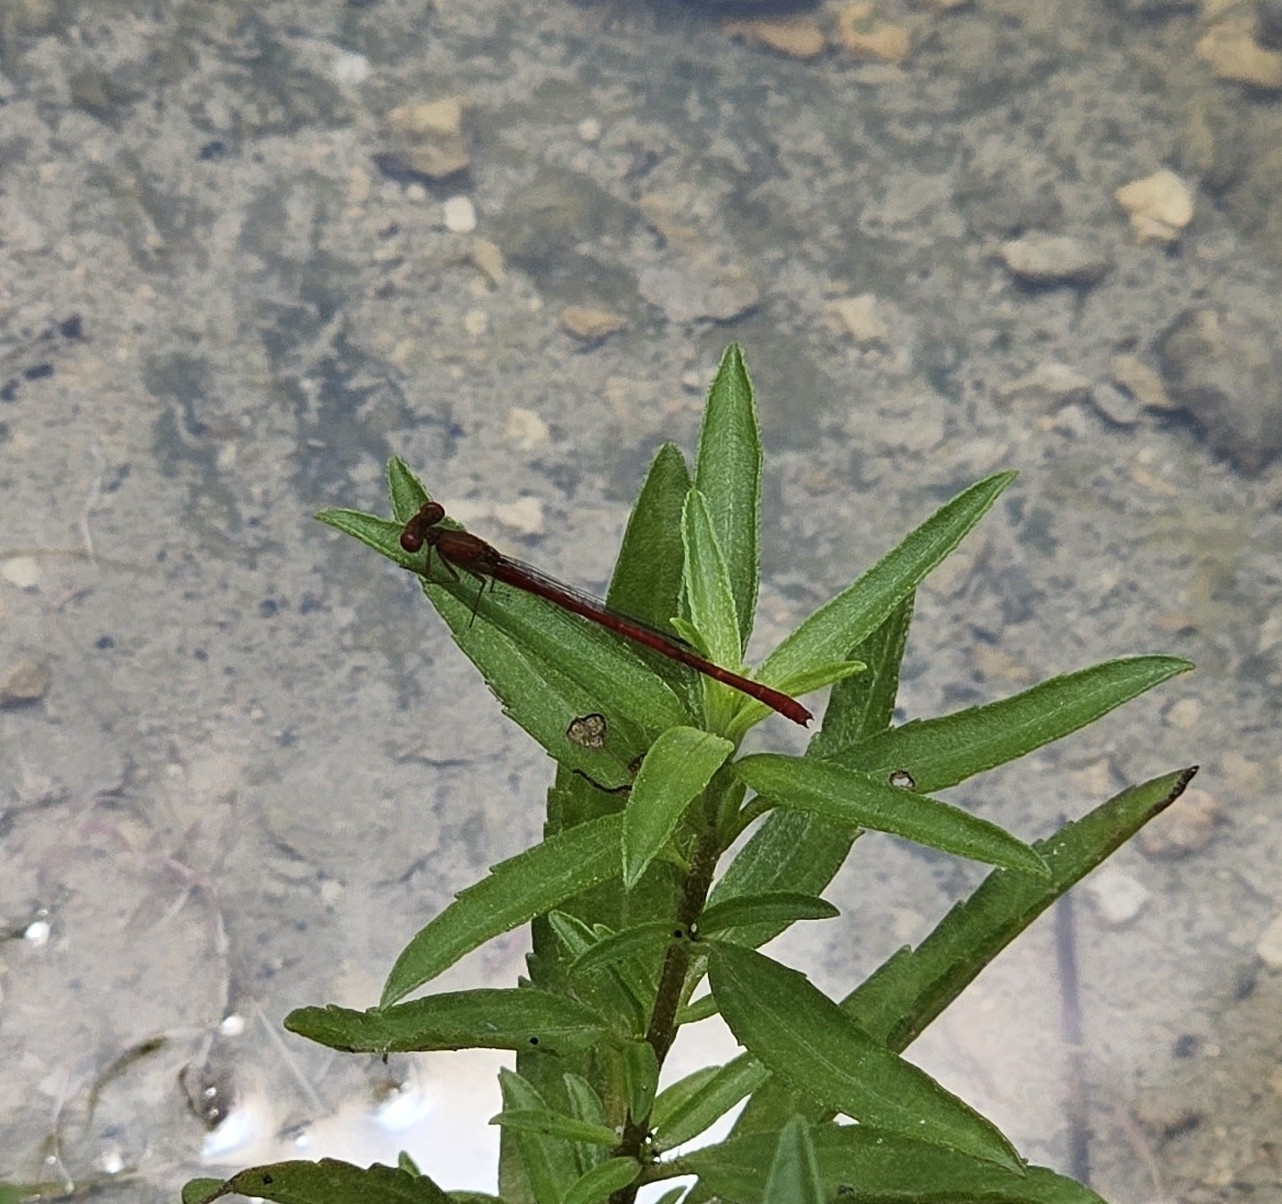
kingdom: Animalia
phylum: Arthropoda
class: Insecta
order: Odonata
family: Coenagrionidae
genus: Telebasis
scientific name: Telebasis salva
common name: Desert firetail
